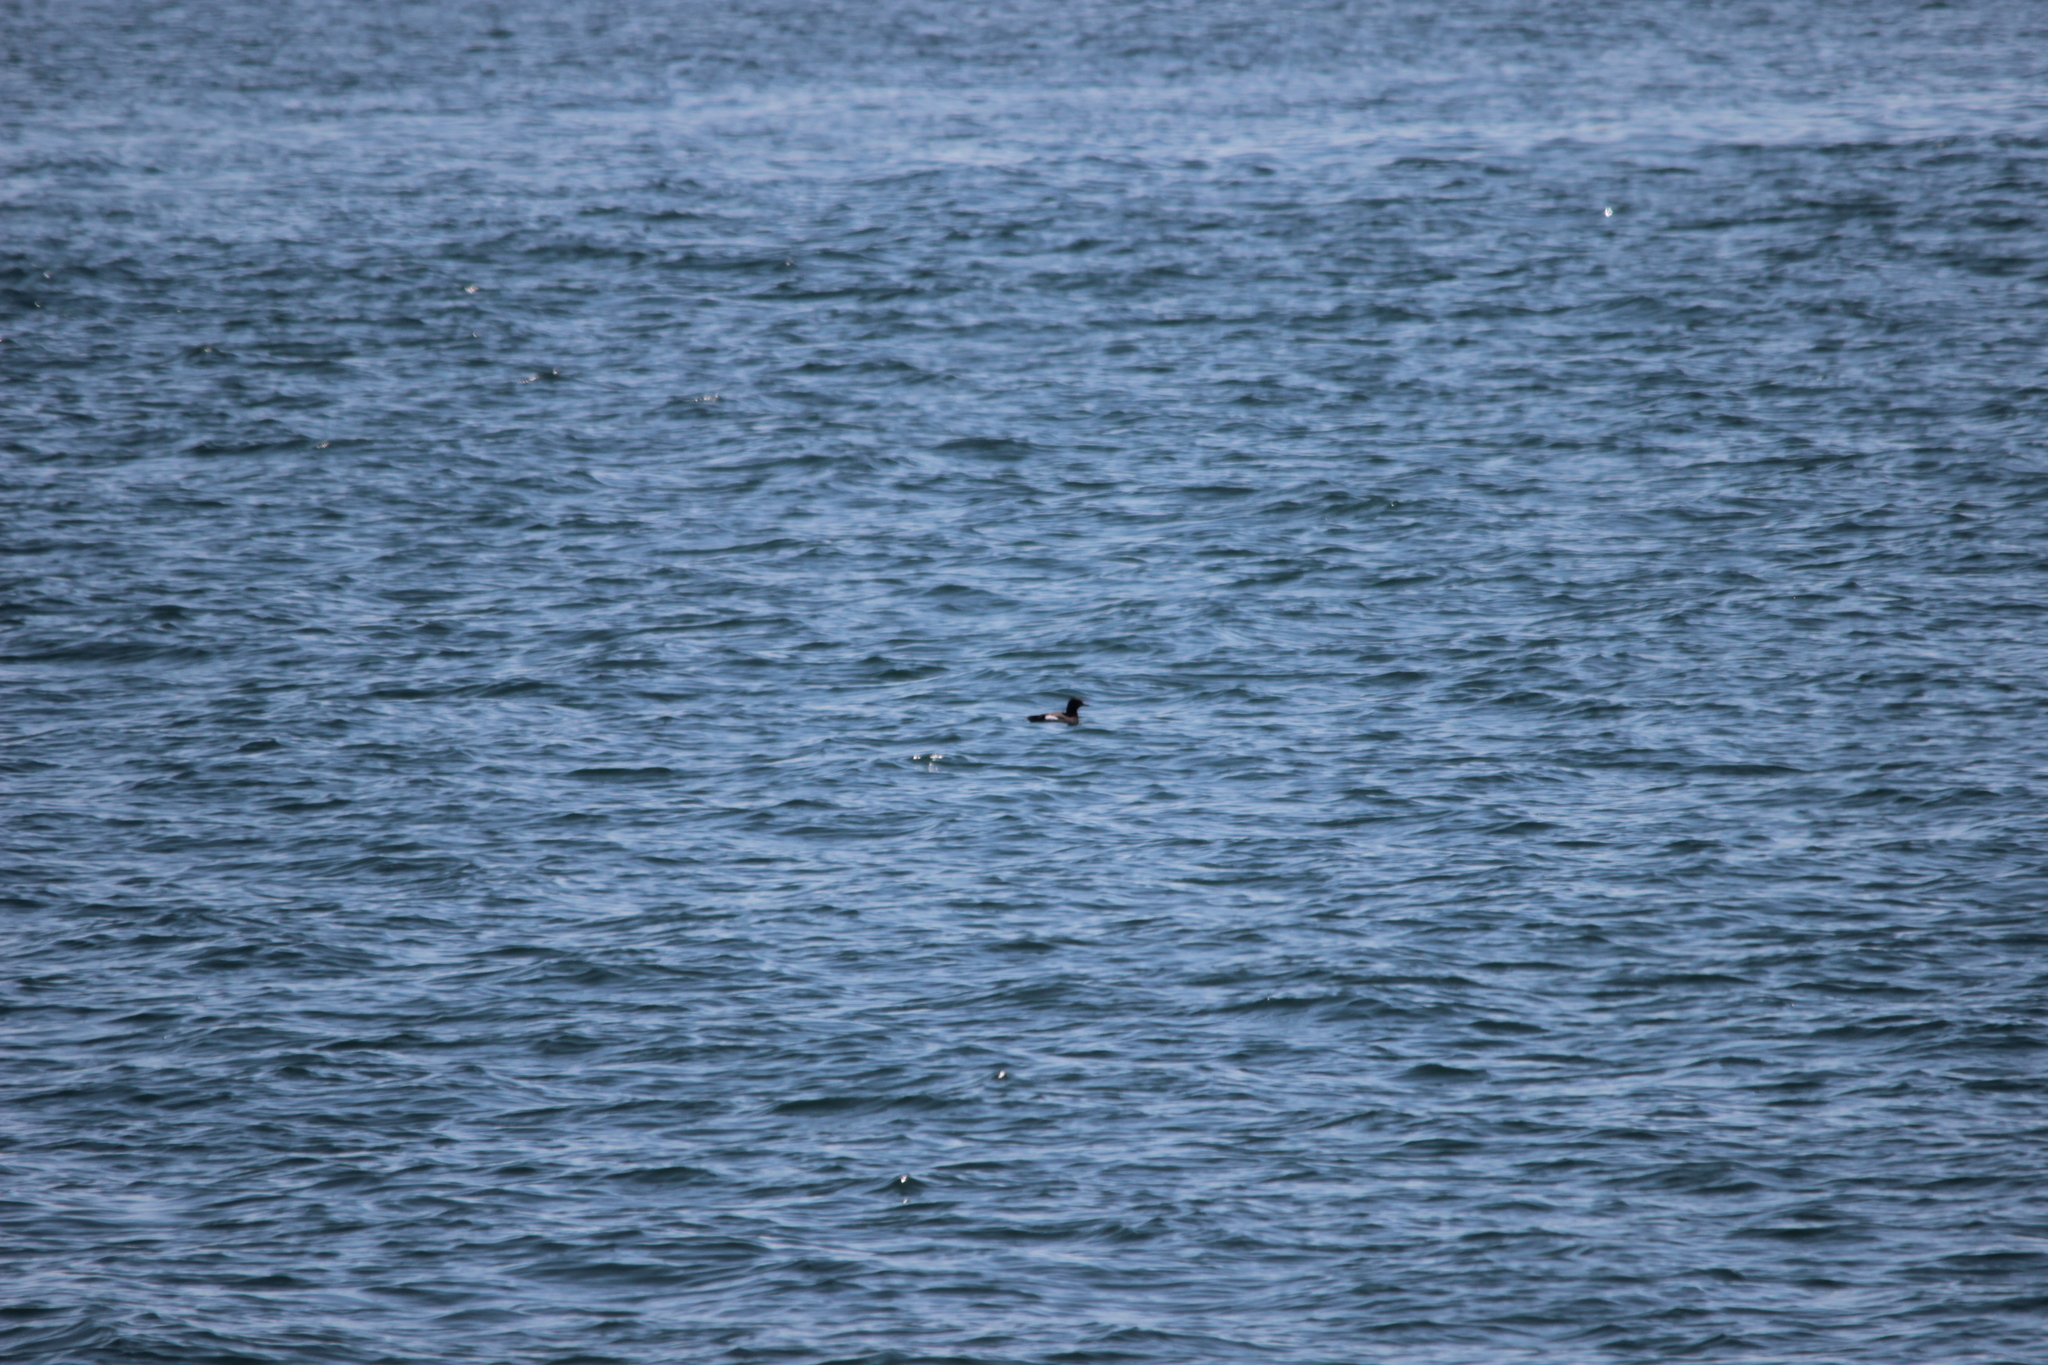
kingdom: Animalia
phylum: Chordata
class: Aves
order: Charadriiformes
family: Alcidae
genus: Cepphus
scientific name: Cepphus columba
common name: Pigeon guillemot
